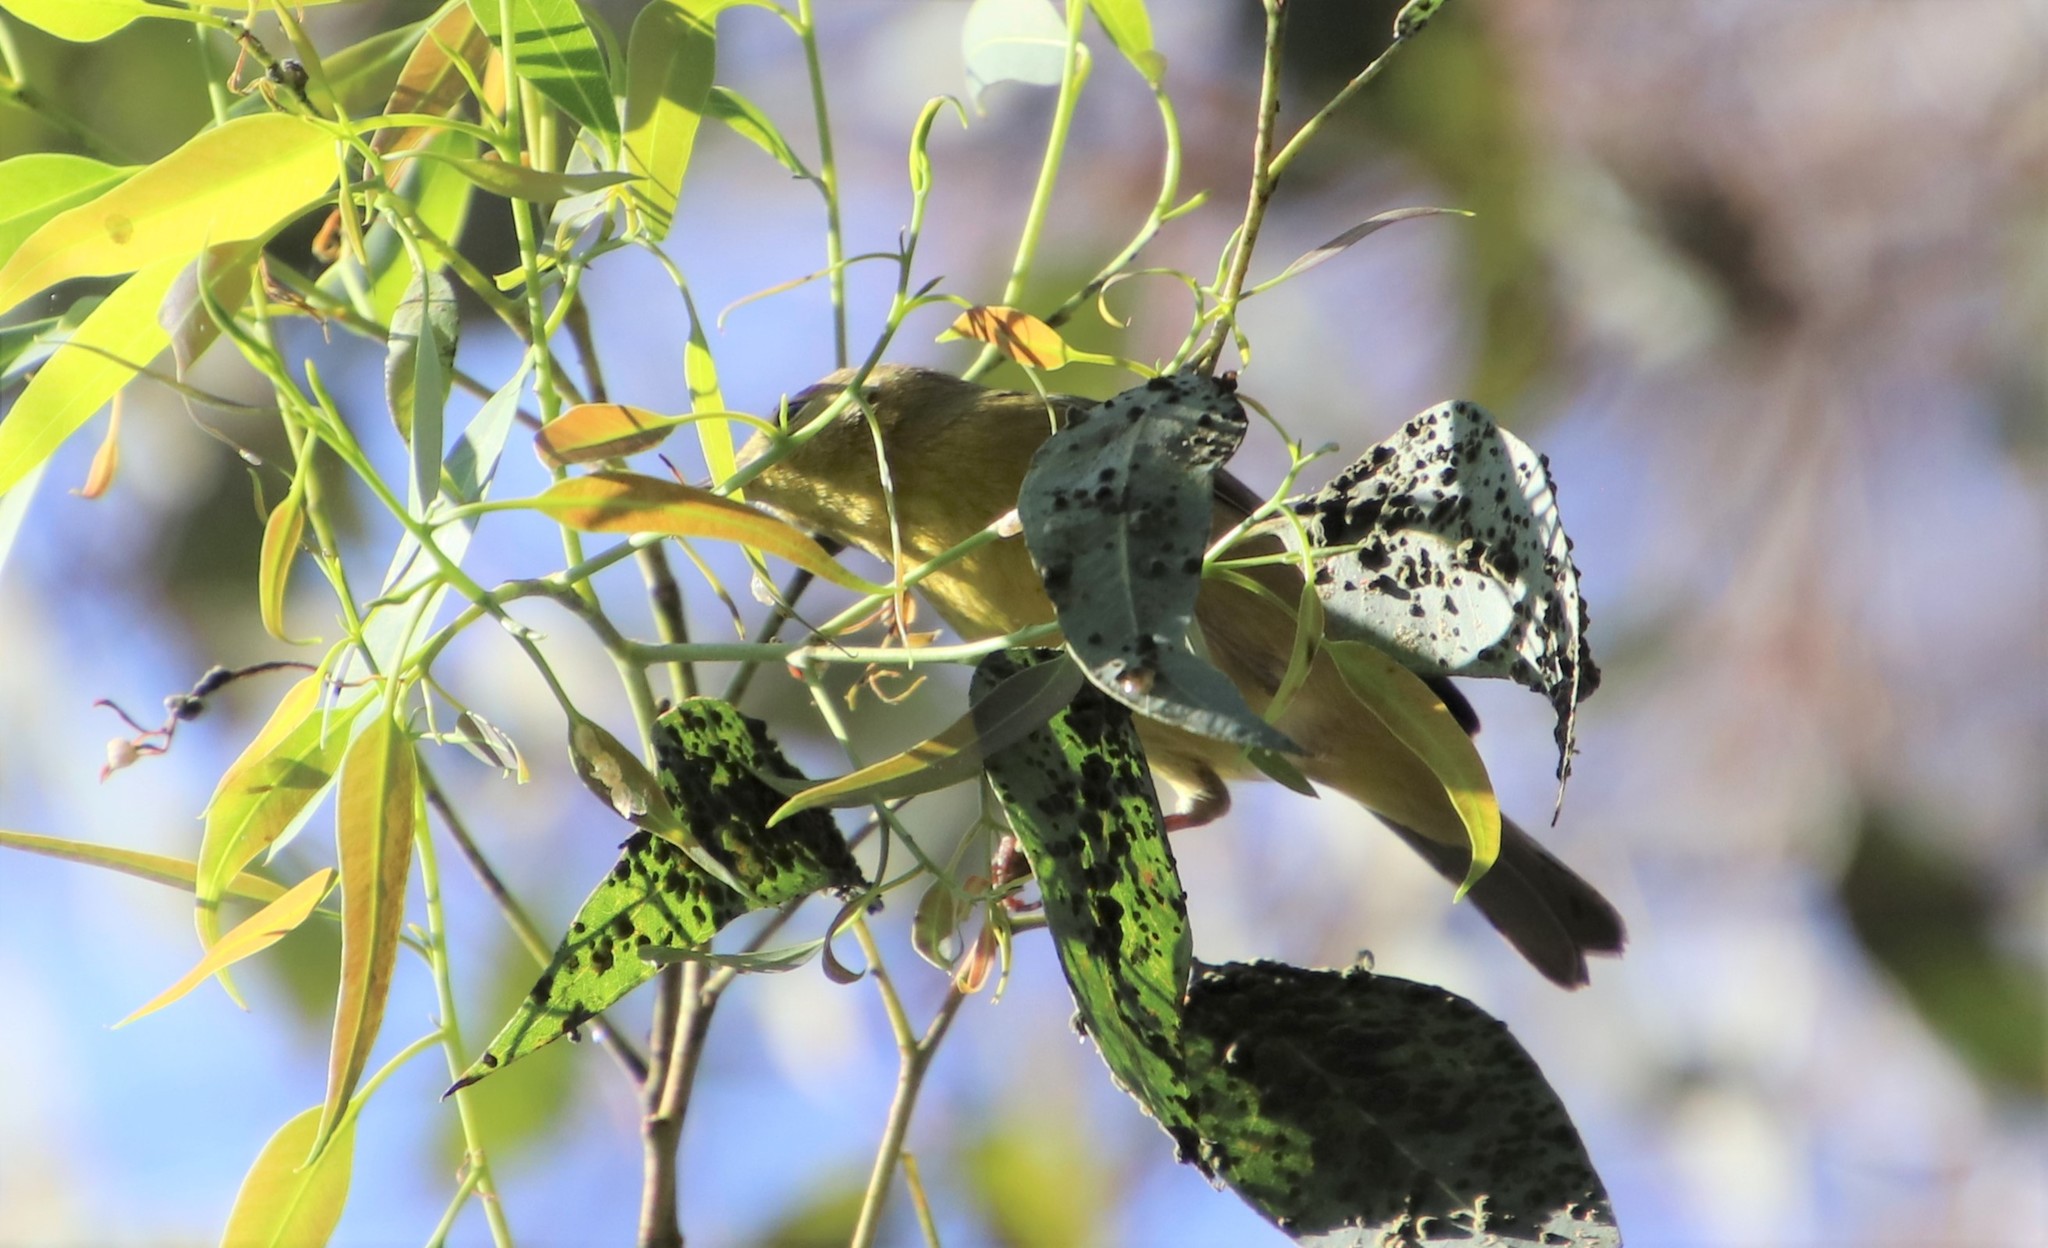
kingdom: Animalia
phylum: Chordata
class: Aves
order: Passeriformes
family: Parulidae
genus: Leiothlypis
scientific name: Leiothlypis celata
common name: Orange-crowned warbler
